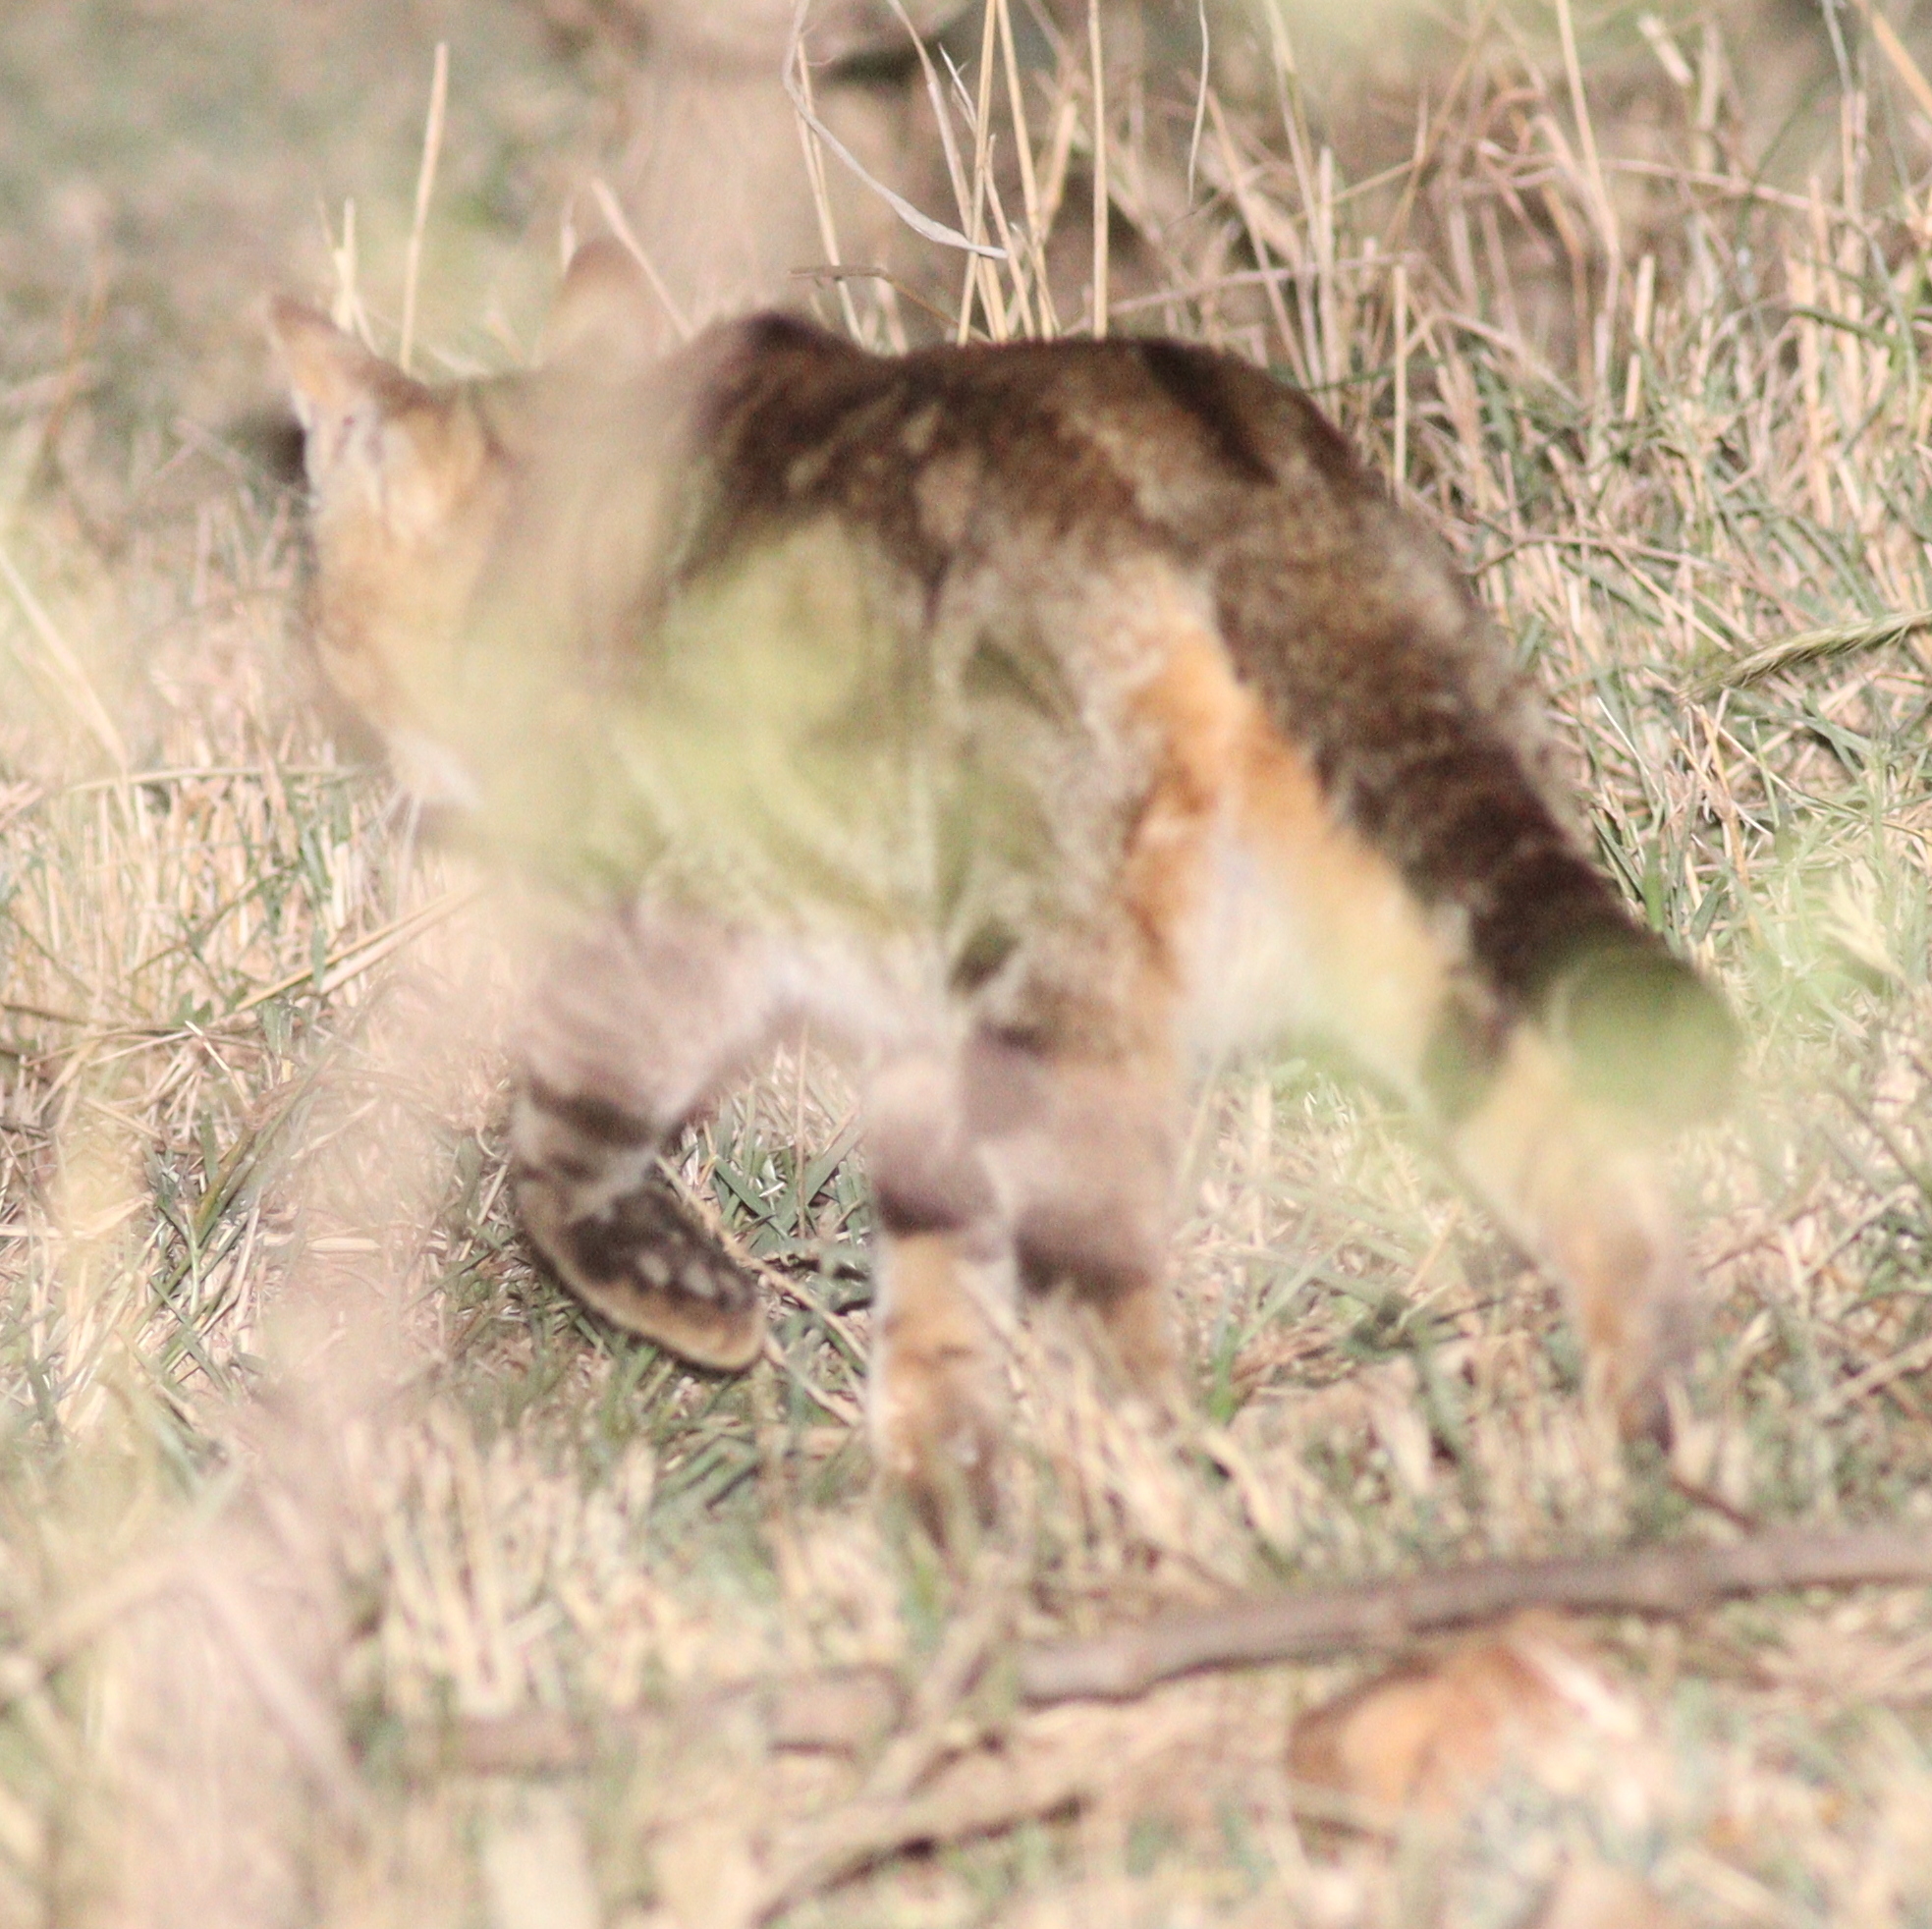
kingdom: Animalia
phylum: Chordata
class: Mammalia
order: Carnivora
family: Felidae
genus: Felis
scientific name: Felis catus
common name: Domestic cat
